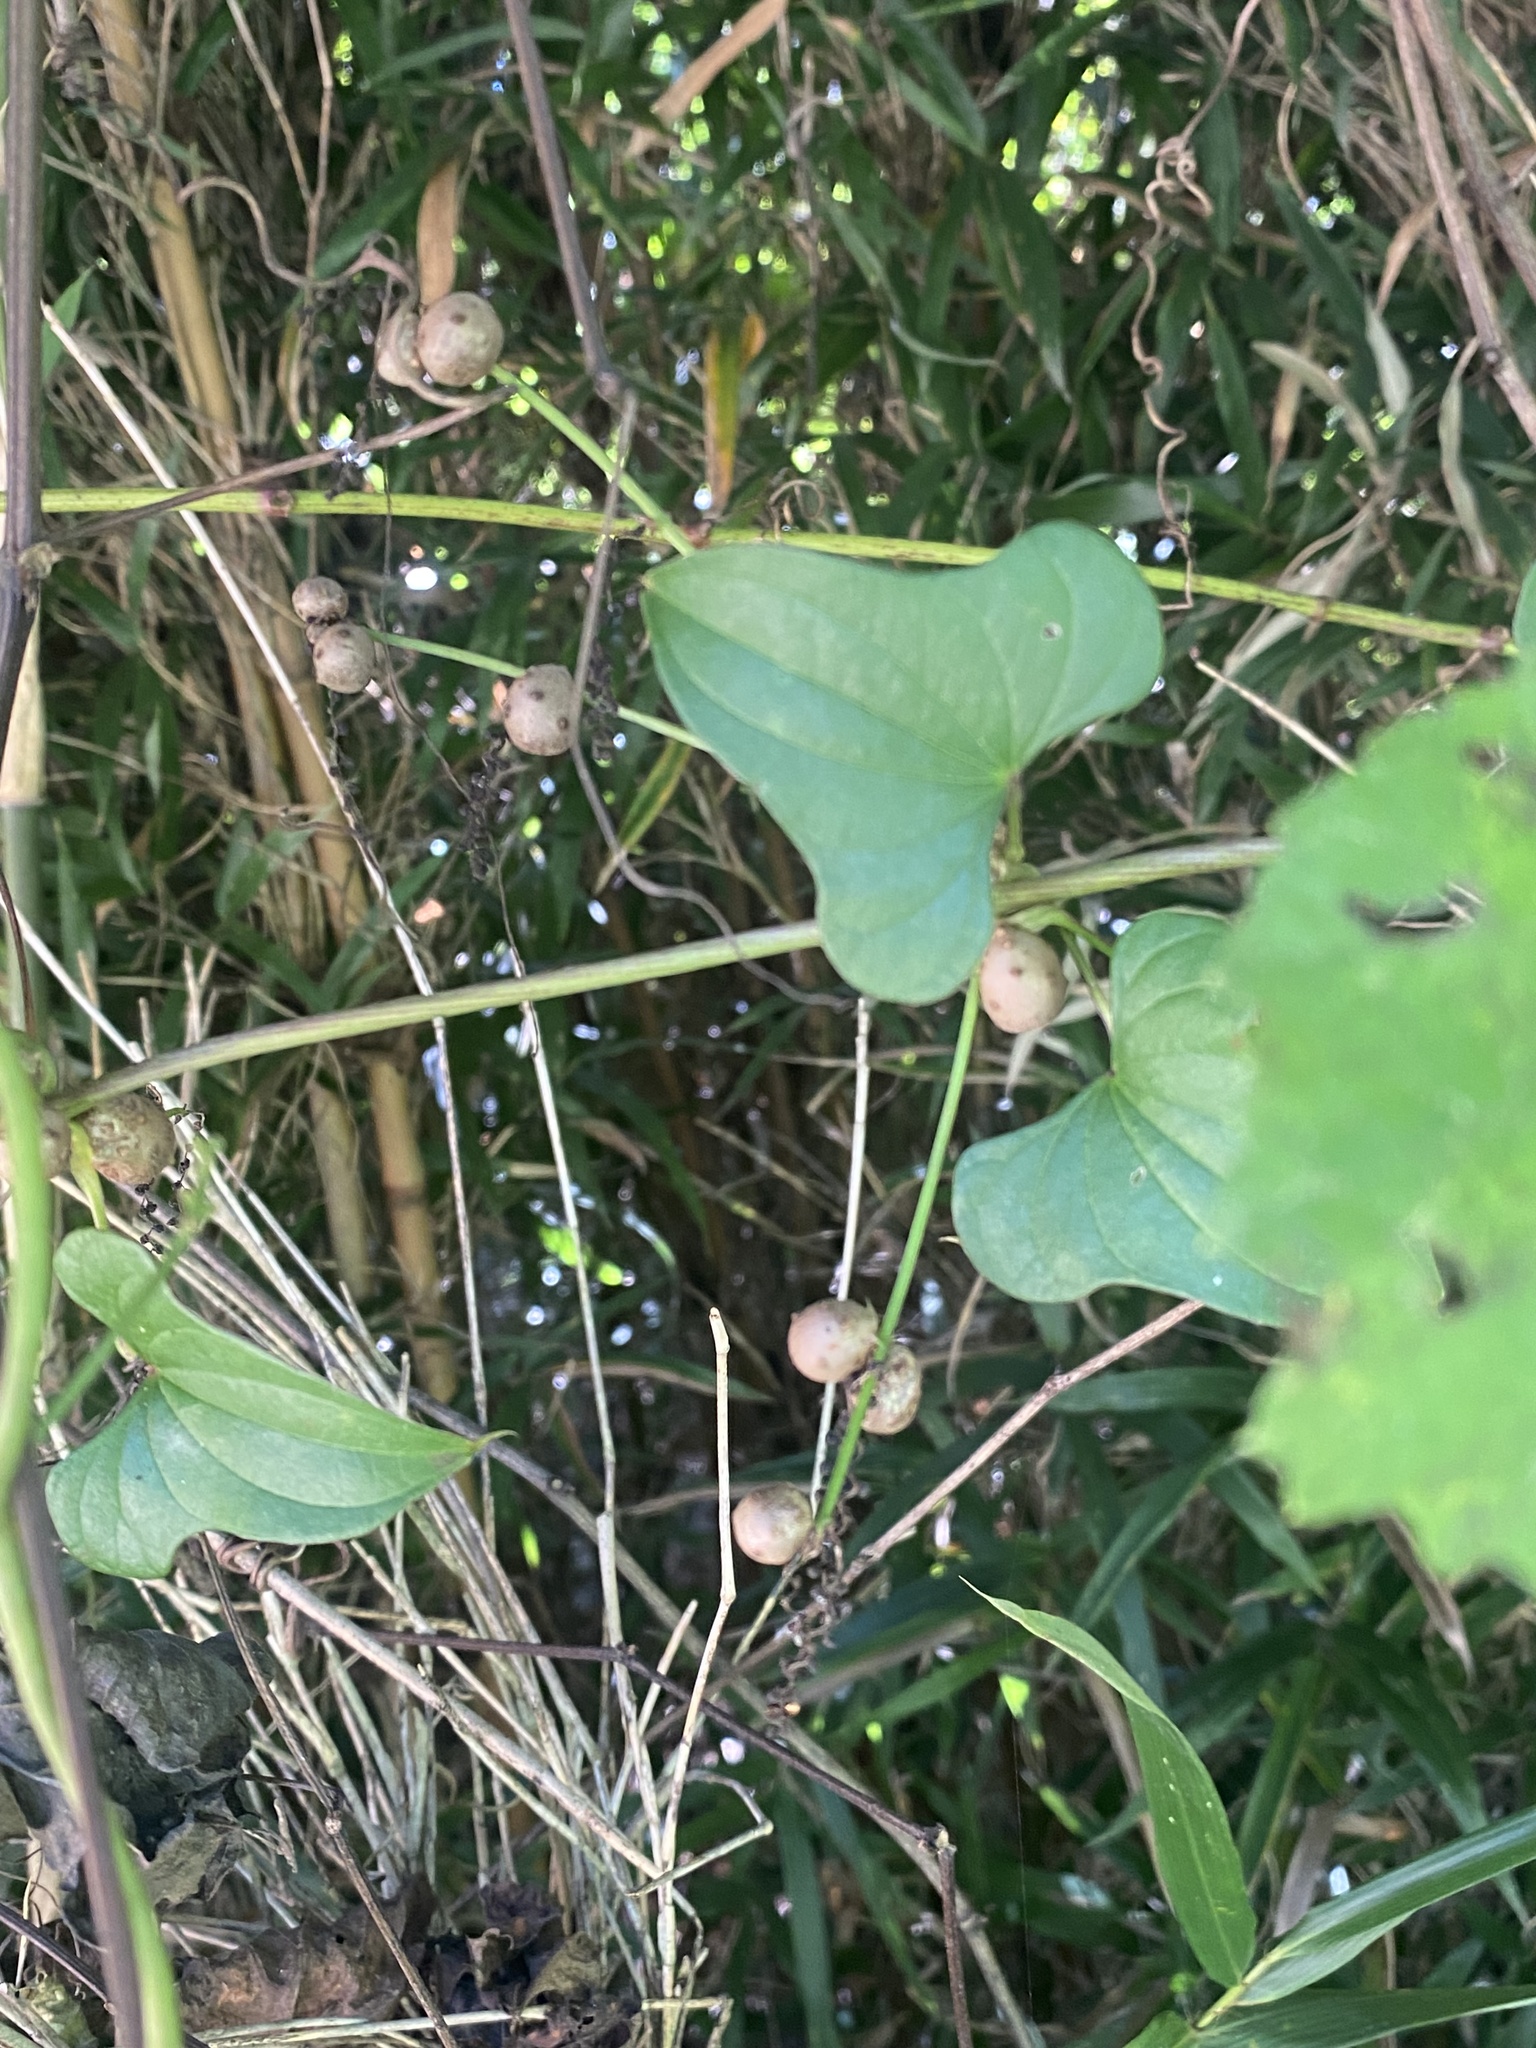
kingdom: Plantae
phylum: Tracheophyta
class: Liliopsida
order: Dioscoreales
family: Dioscoreaceae
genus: Dioscorea
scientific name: Dioscorea polystachya
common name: Chinese yam
